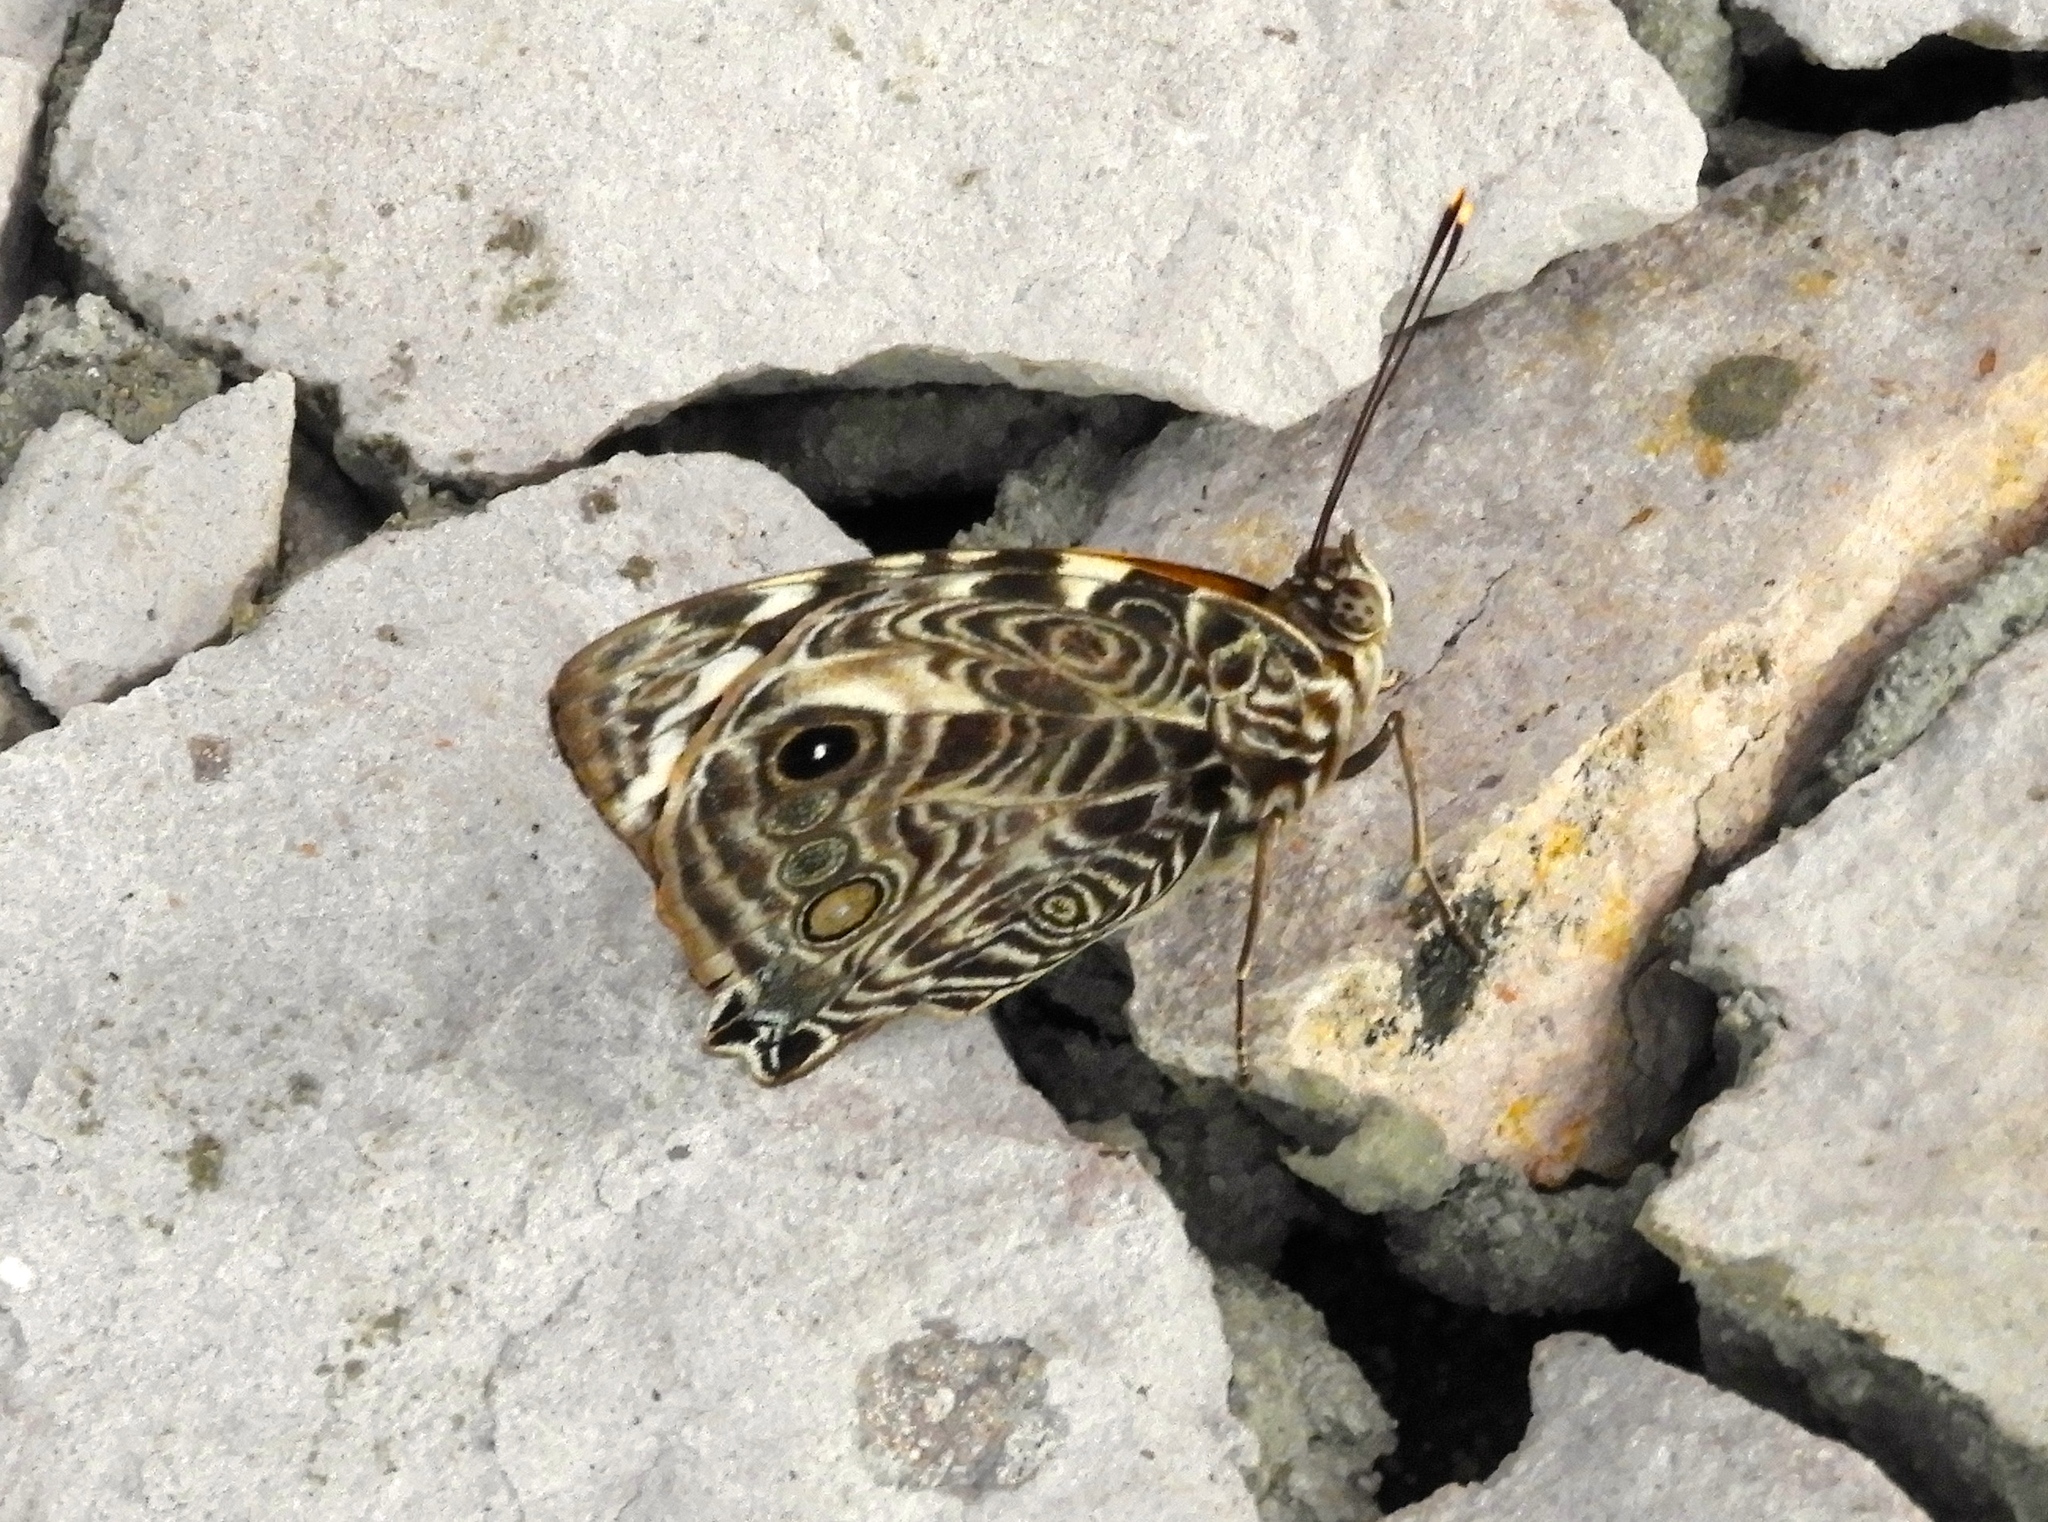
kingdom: Animalia
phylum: Arthropoda
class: Insecta
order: Lepidoptera
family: Nymphalidae
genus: Smyrna
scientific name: Smyrna blomfildia
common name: Blomfild's beauty
